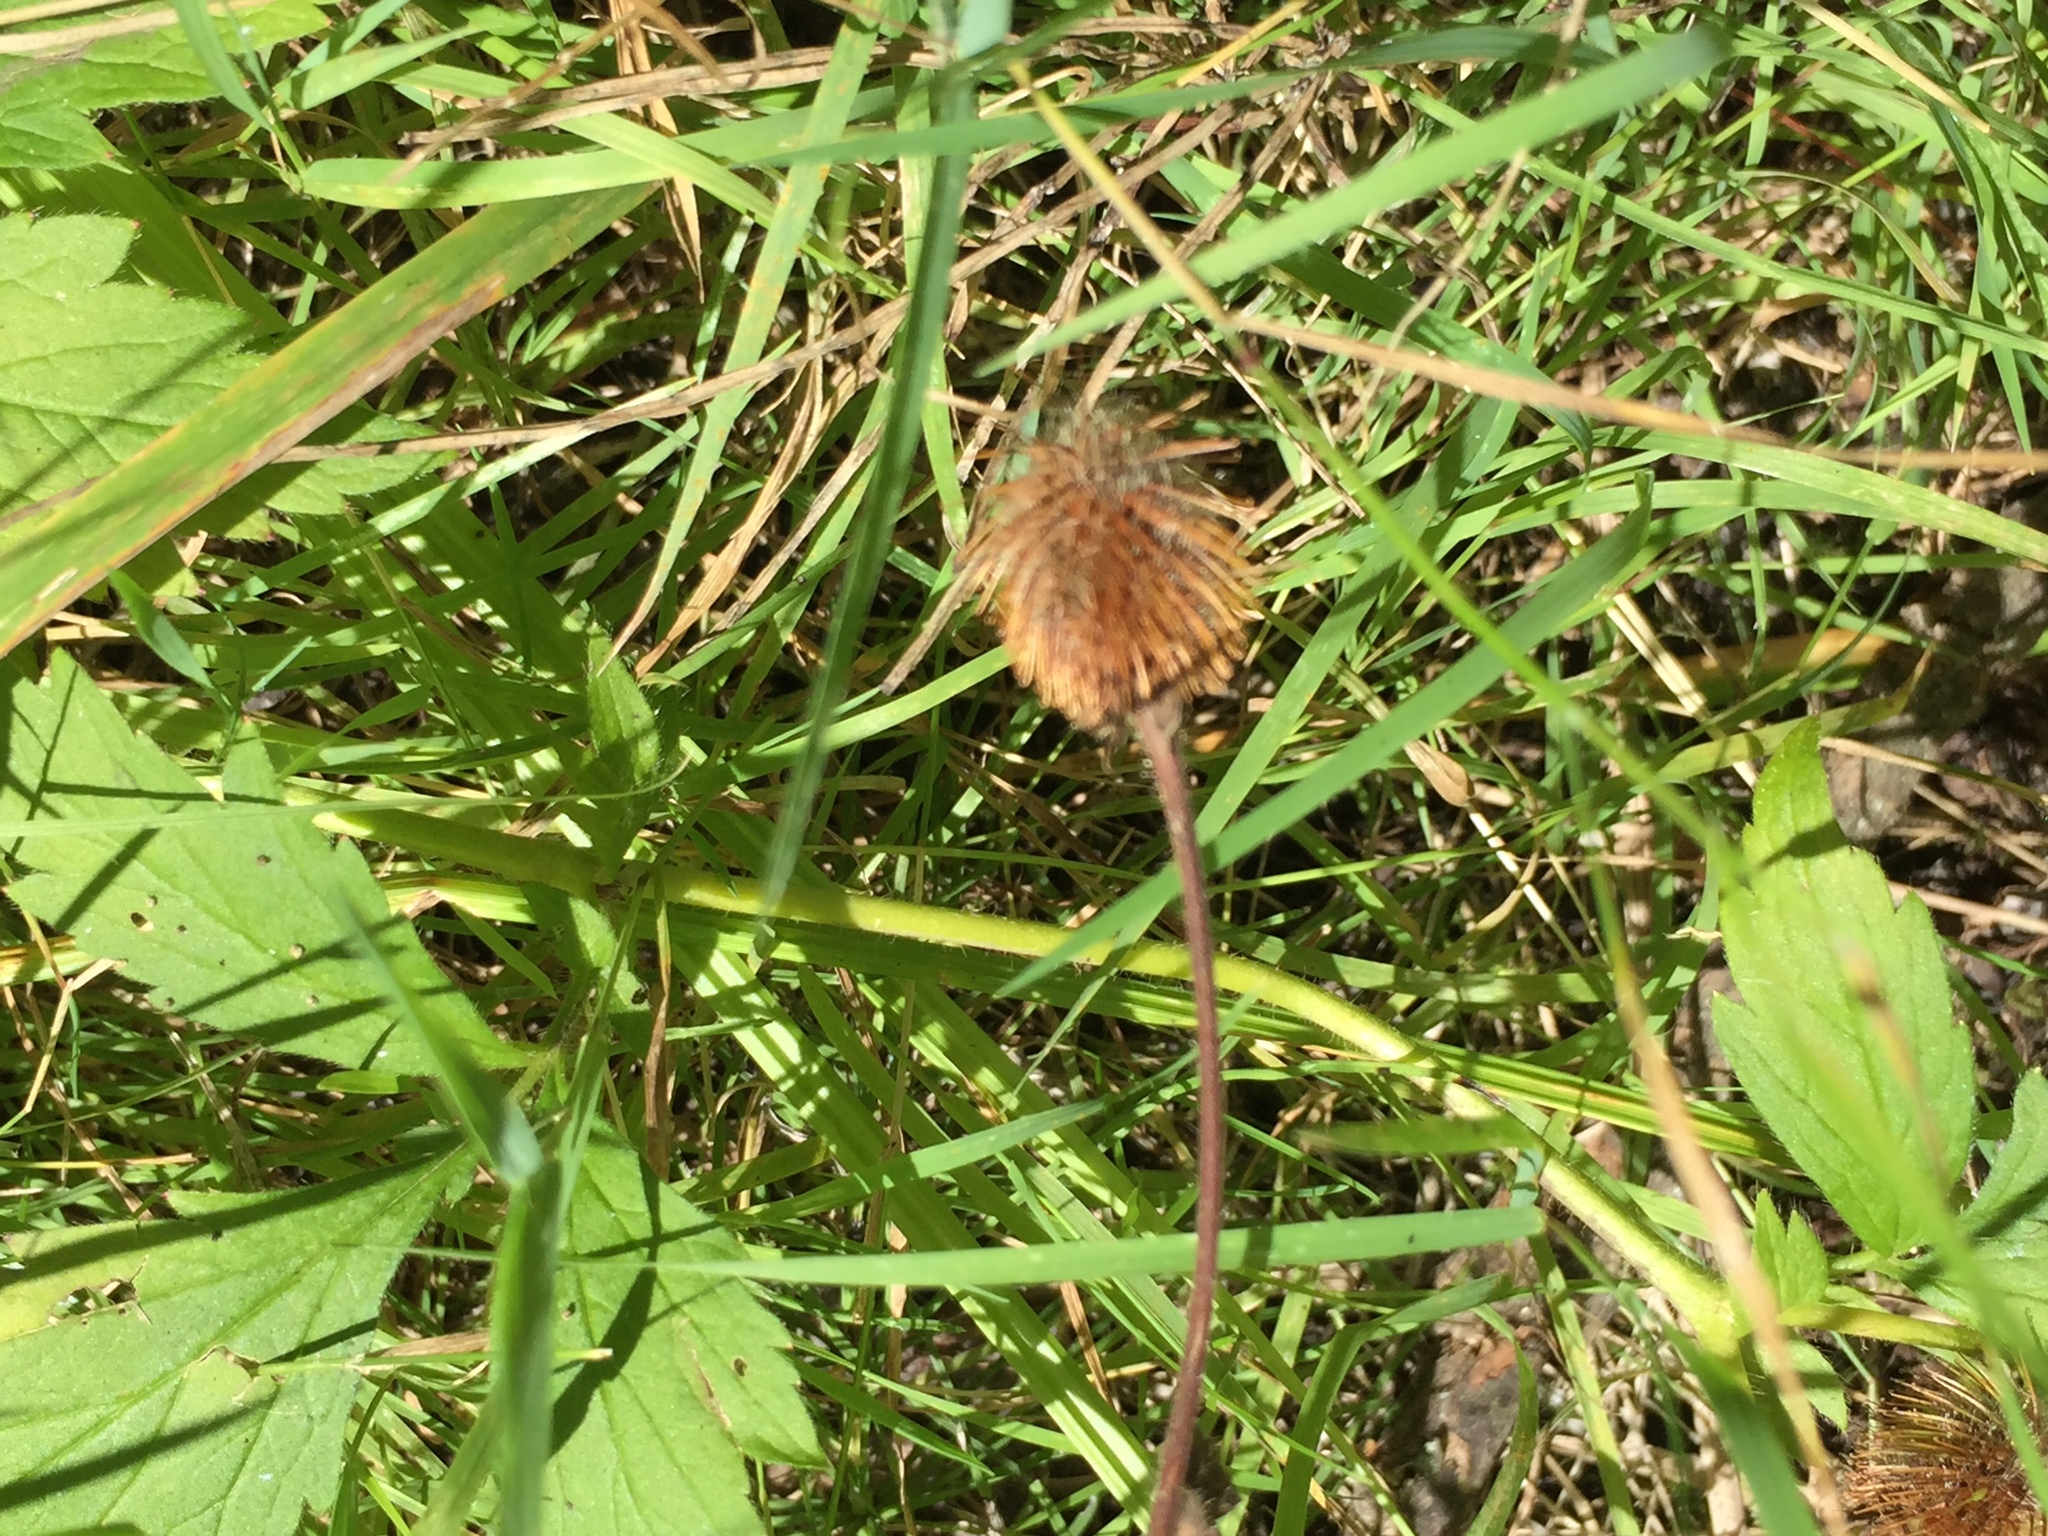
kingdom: Plantae
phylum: Tracheophyta
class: Magnoliopsida
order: Rosales
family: Rosaceae
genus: Geum
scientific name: Geum aleppicum
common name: Yellow avens
